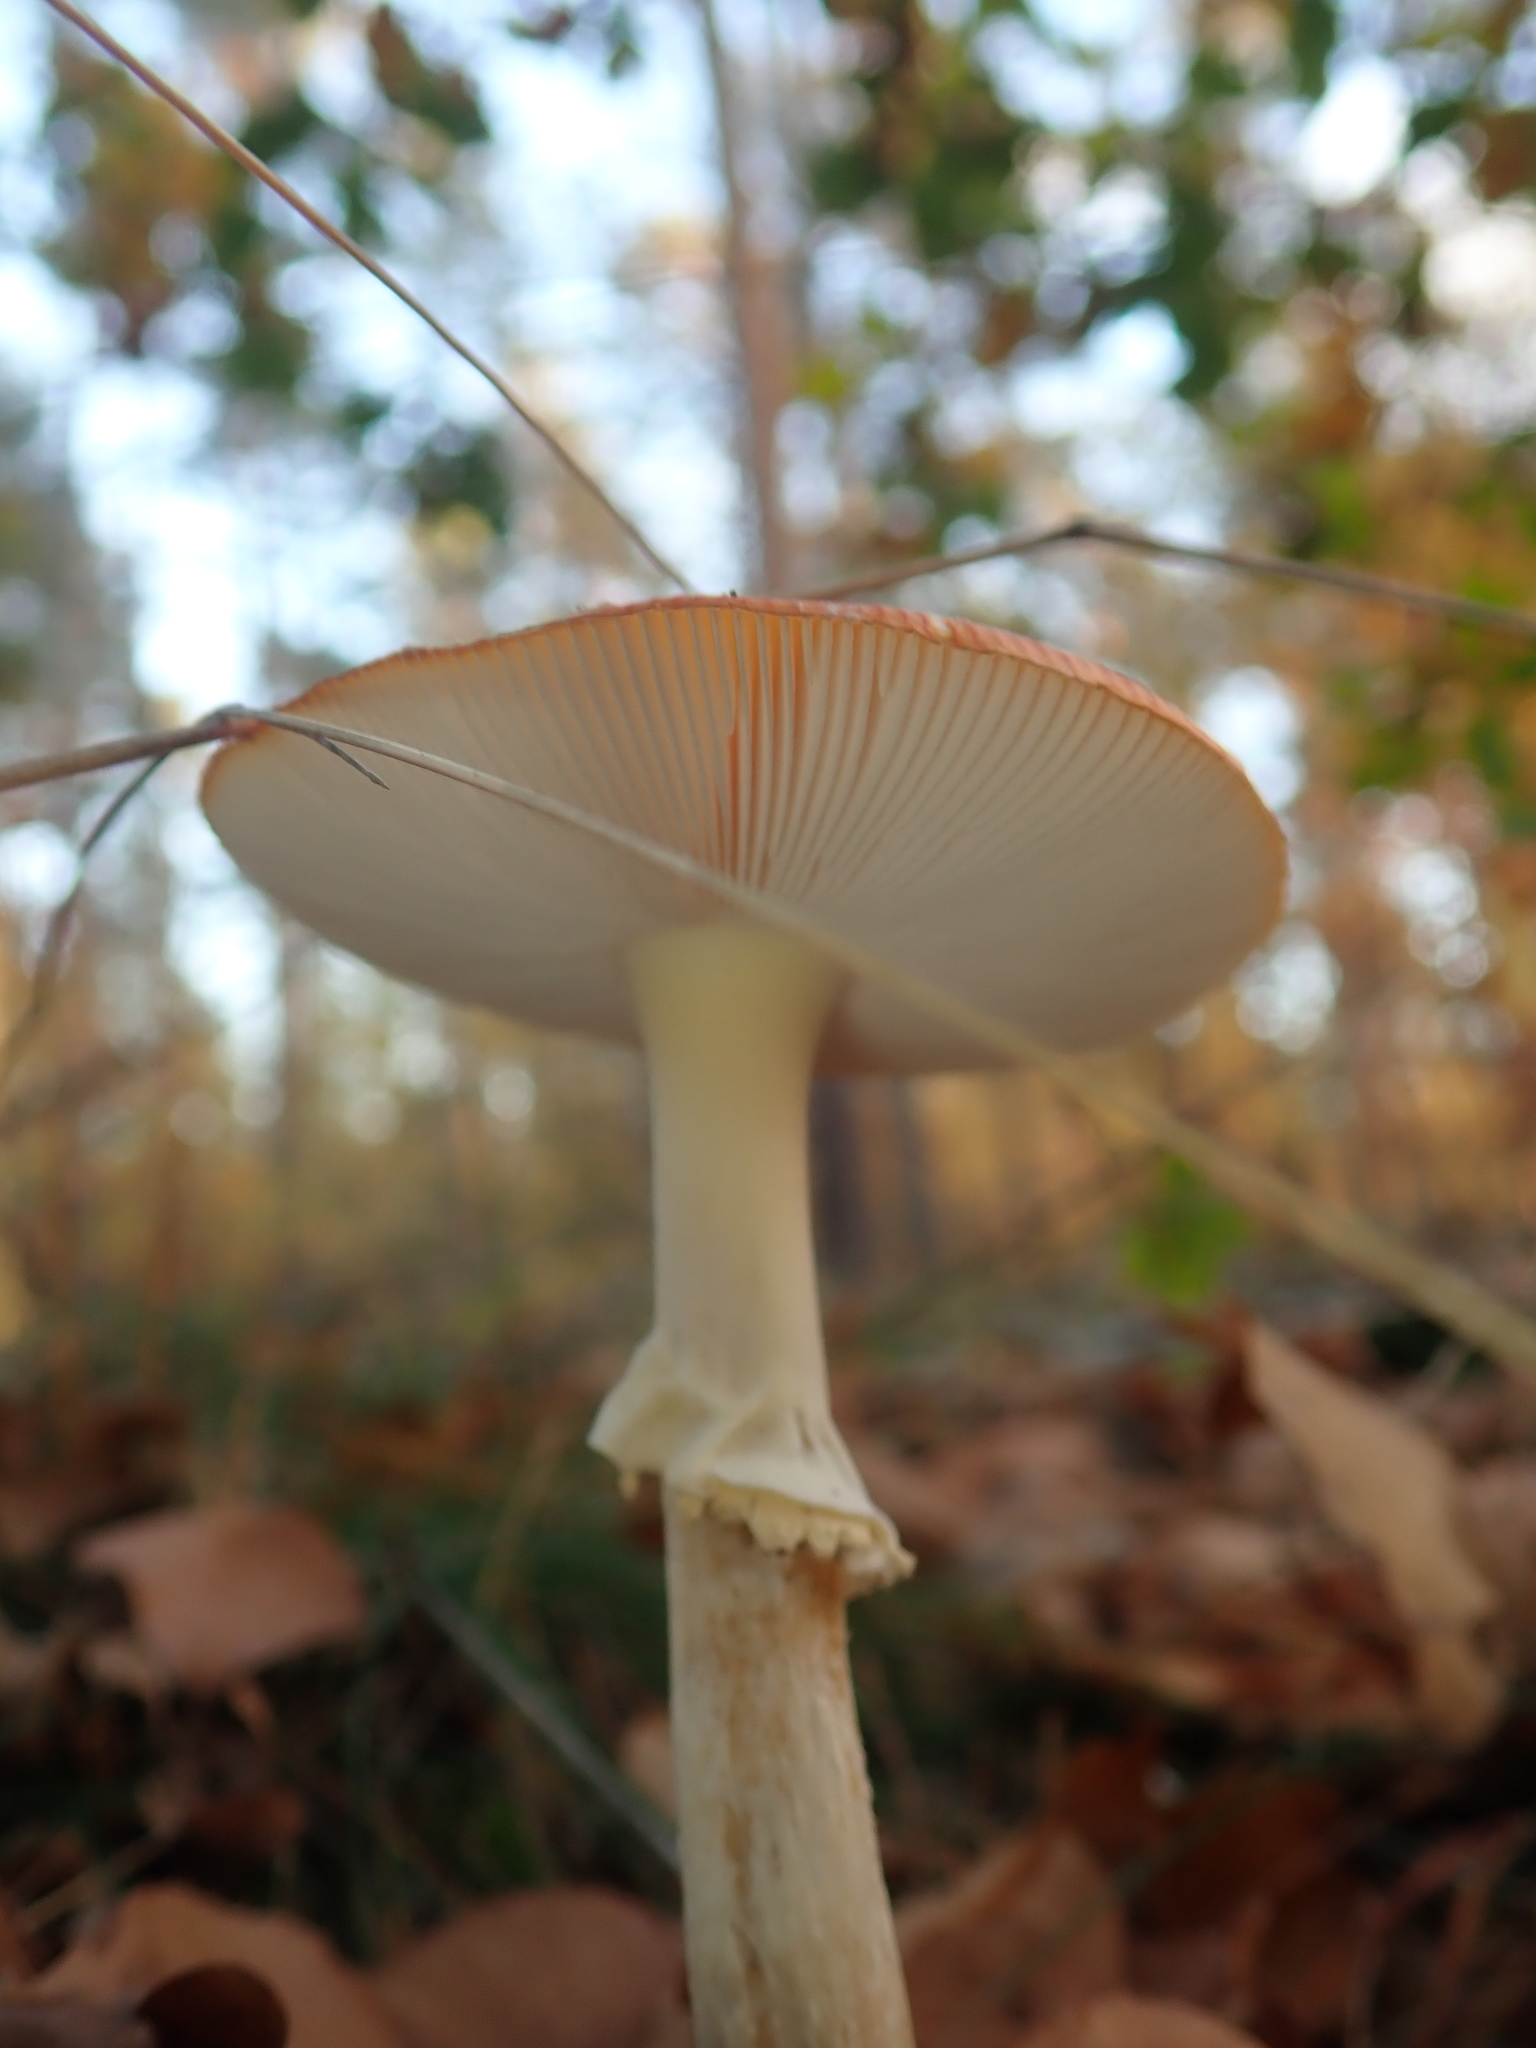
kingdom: Fungi
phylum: Basidiomycota
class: Agaricomycetes
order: Agaricales
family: Amanitaceae
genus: Amanita
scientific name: Amanita muscaria
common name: Fly agaric
